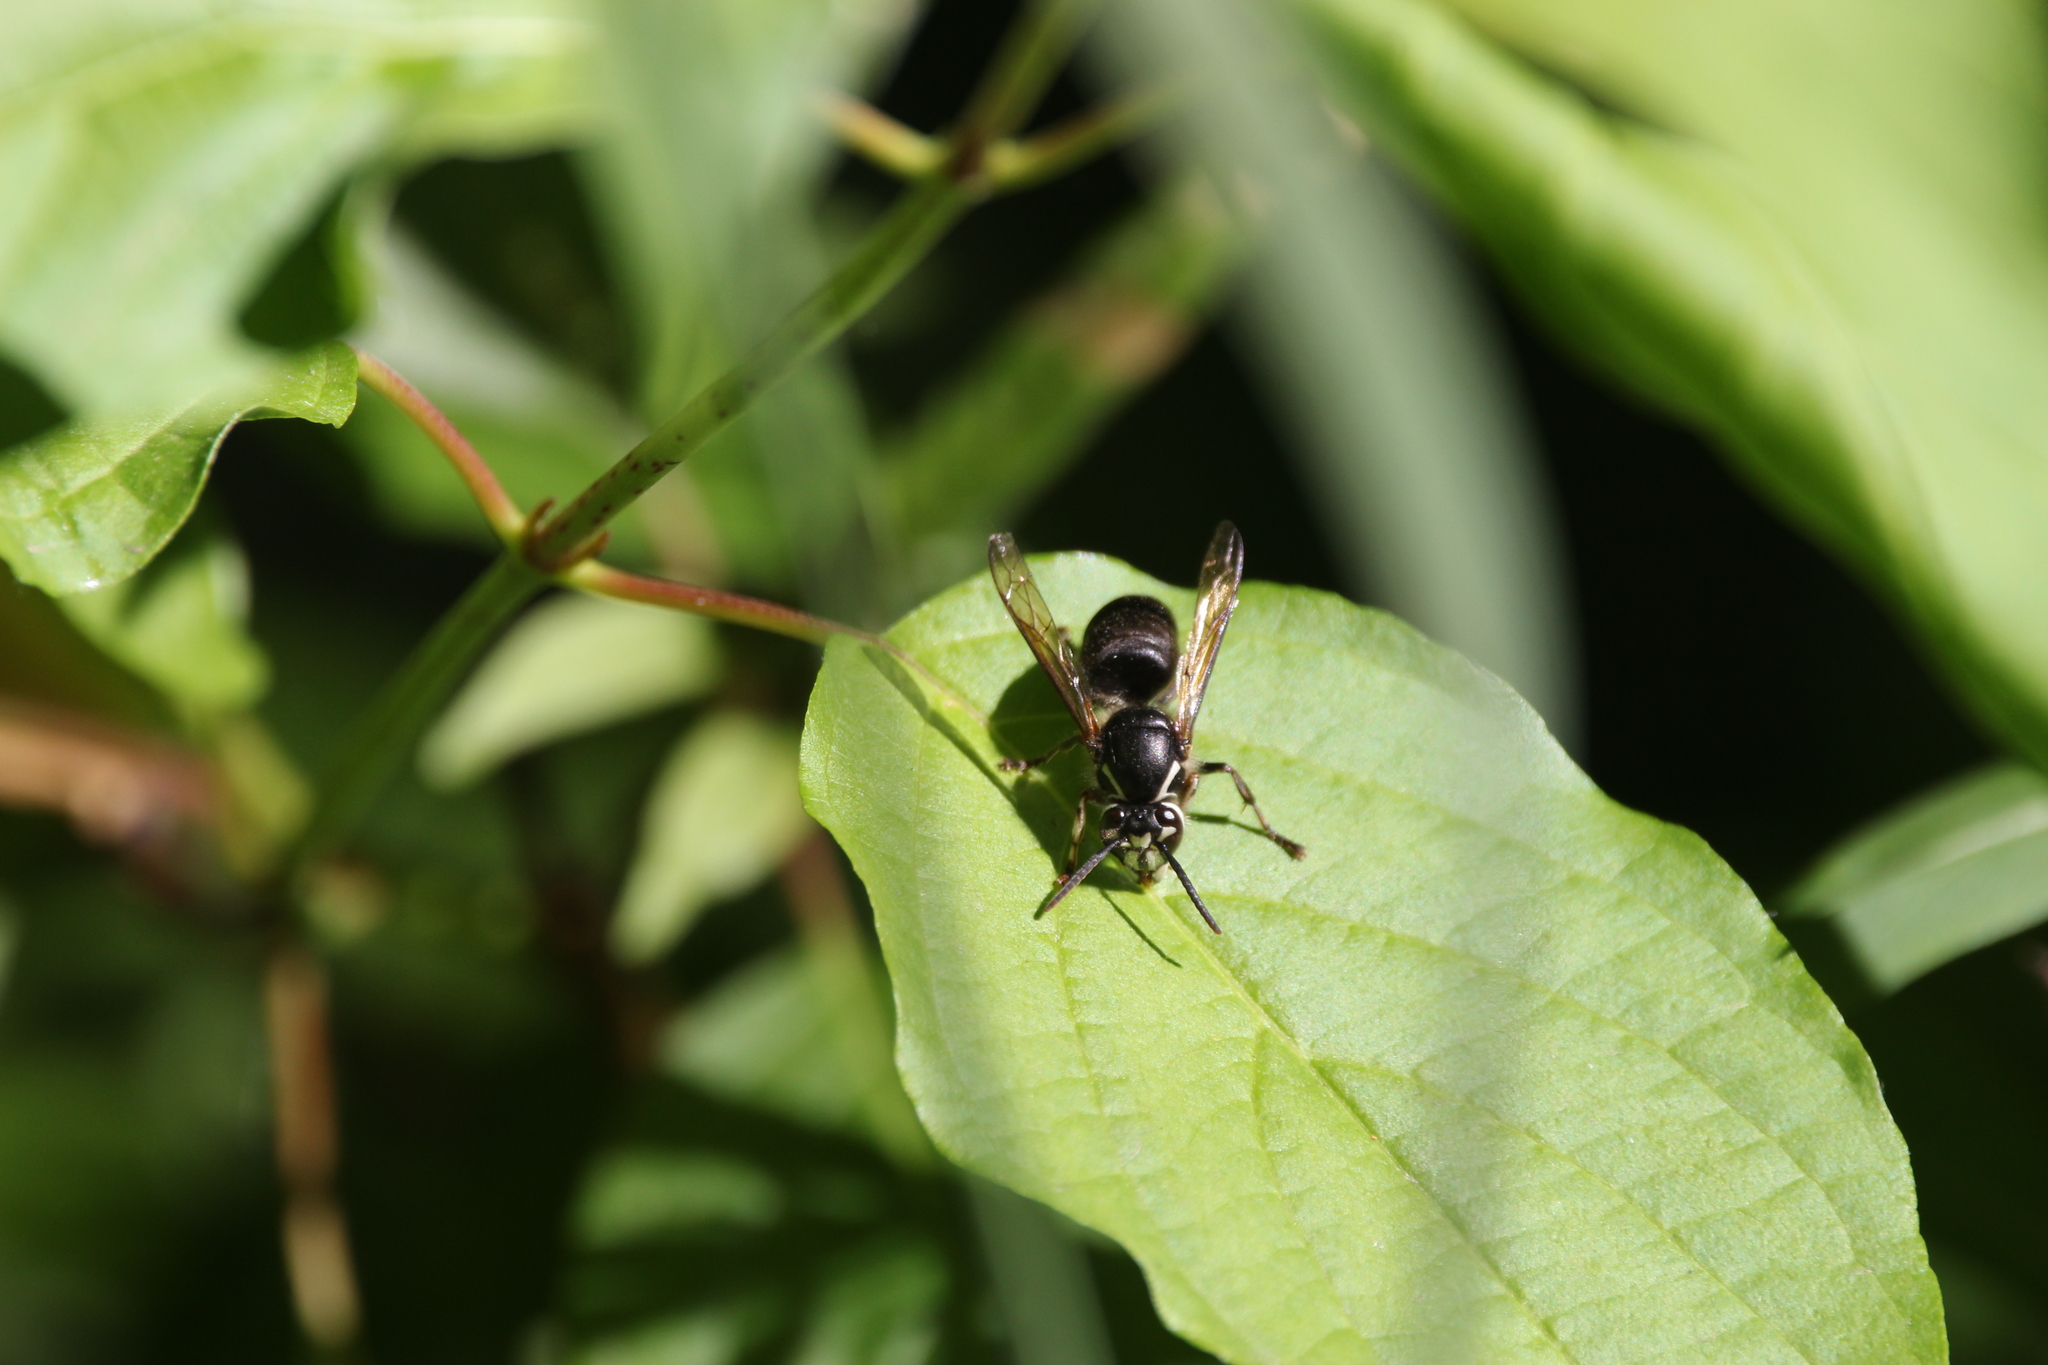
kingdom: Animalia
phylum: Arthropoda
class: Insecta
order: Hymenoptera
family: Vespidae
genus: Dolichovespula
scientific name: Dolichovespula maculata
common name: Bald-faced hornet
